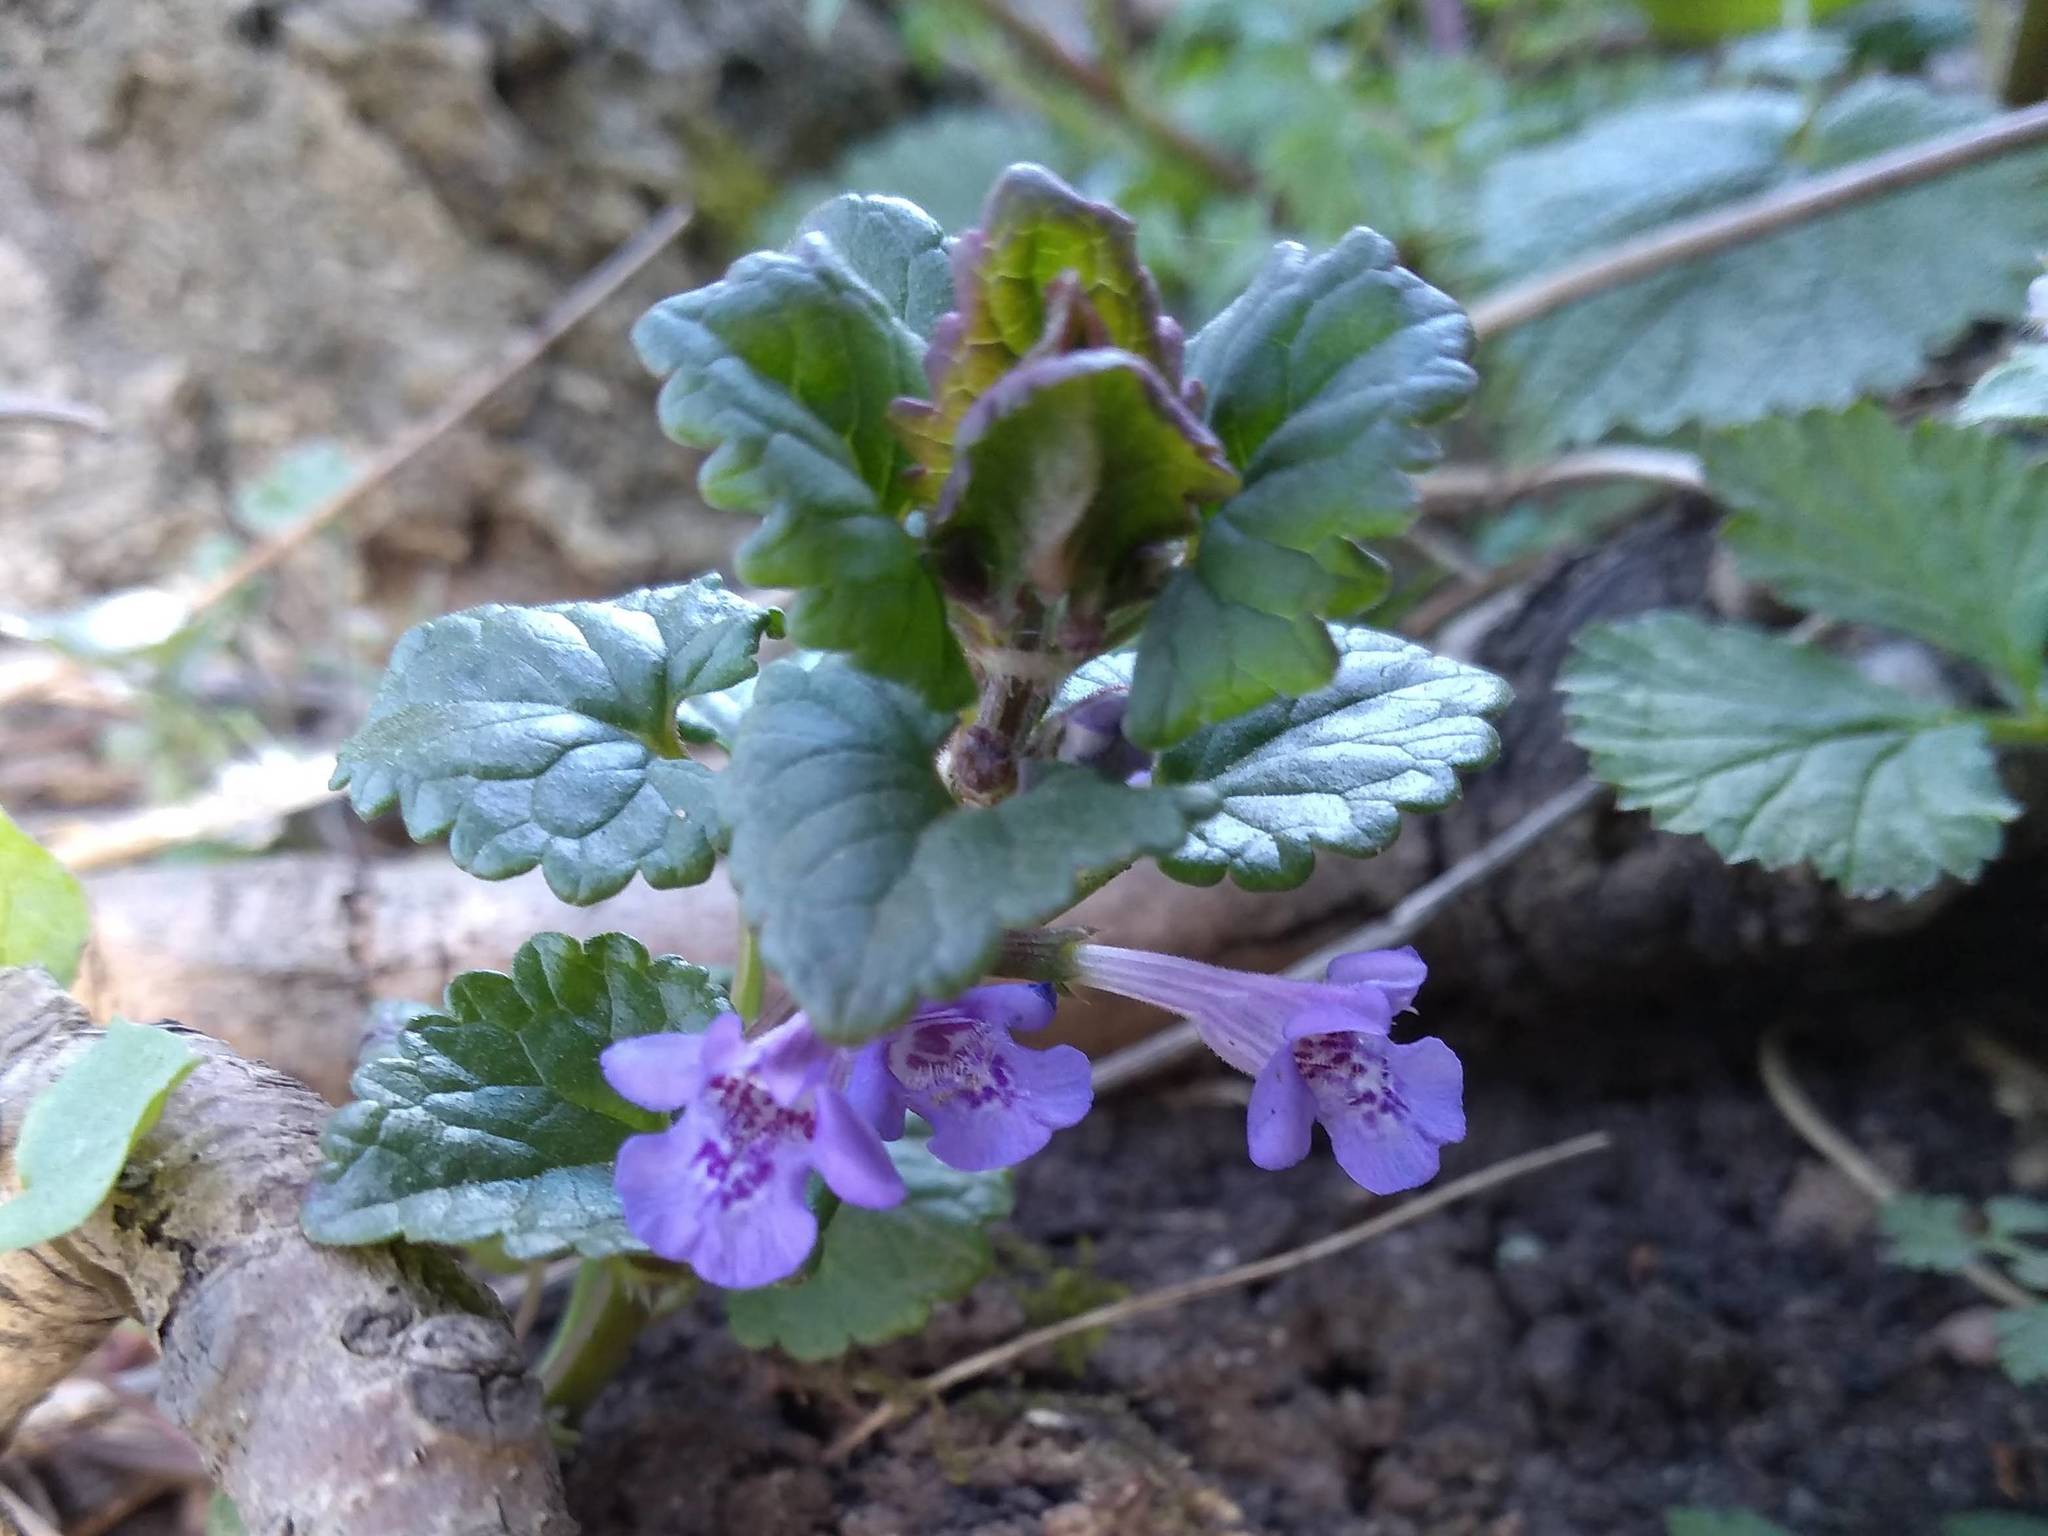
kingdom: Plantae
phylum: Tracheophyta
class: Magnoliopsida
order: Lamiales
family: Lamiaceae
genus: Glechoma
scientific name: Glechoma hederacea
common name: Ground ivy
